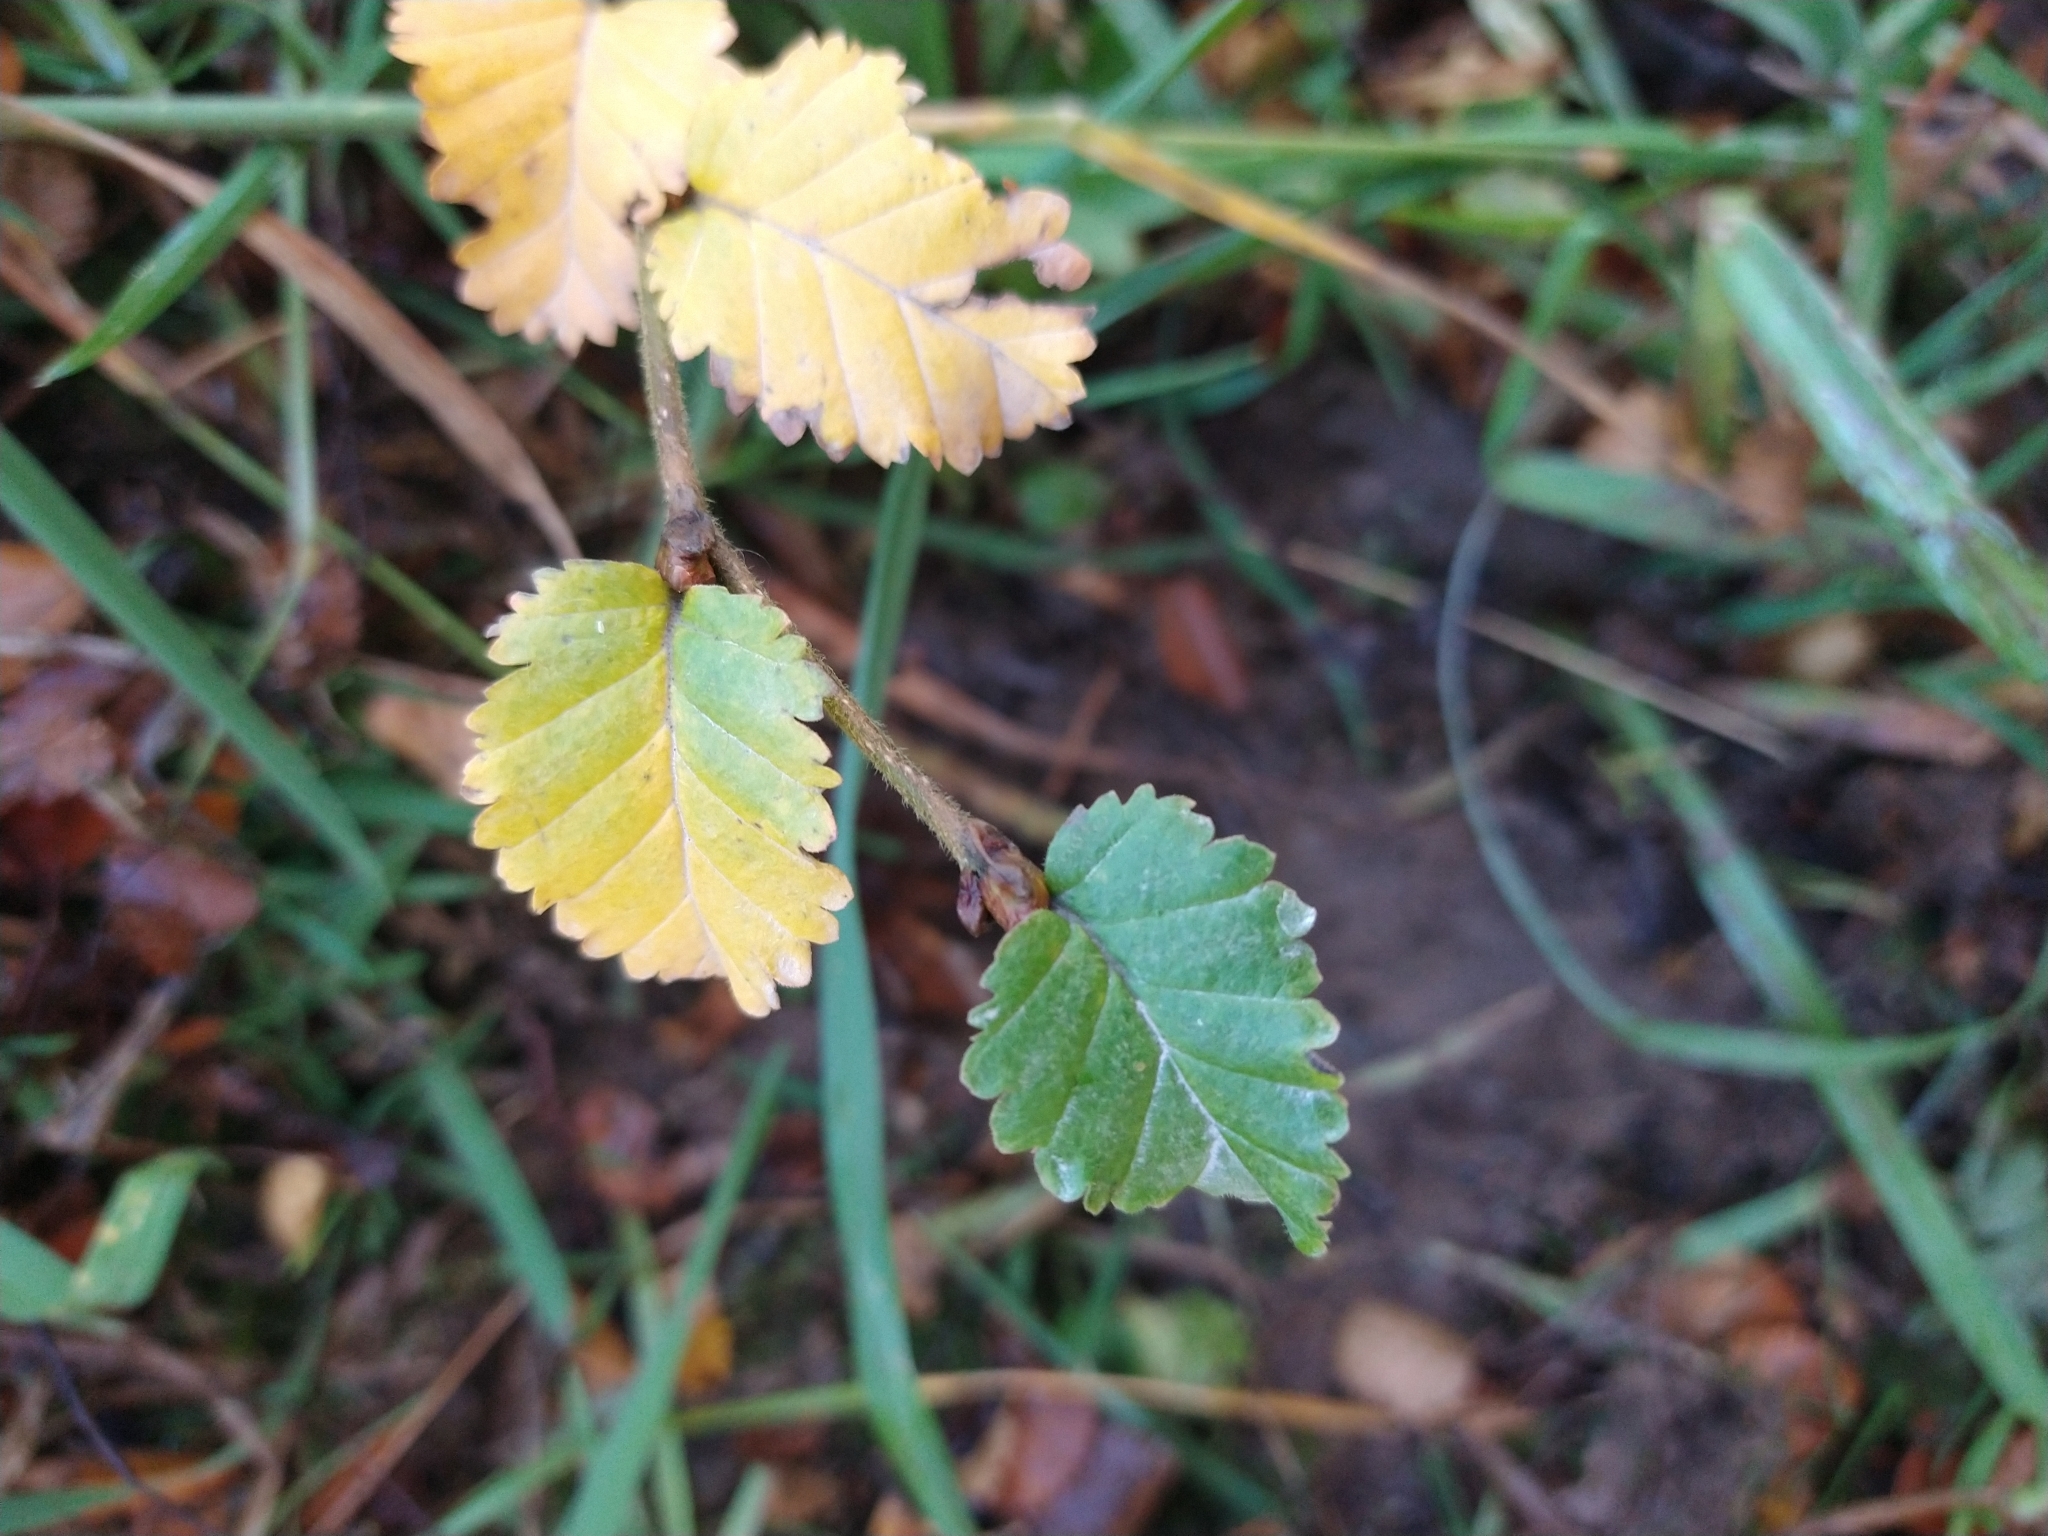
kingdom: Plantae
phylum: Tracheophyta
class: Magnoliopsida
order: Fagales
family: Nothofagaceae
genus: Nothofagus
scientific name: Nothofagus pumilio
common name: Lenga beech
